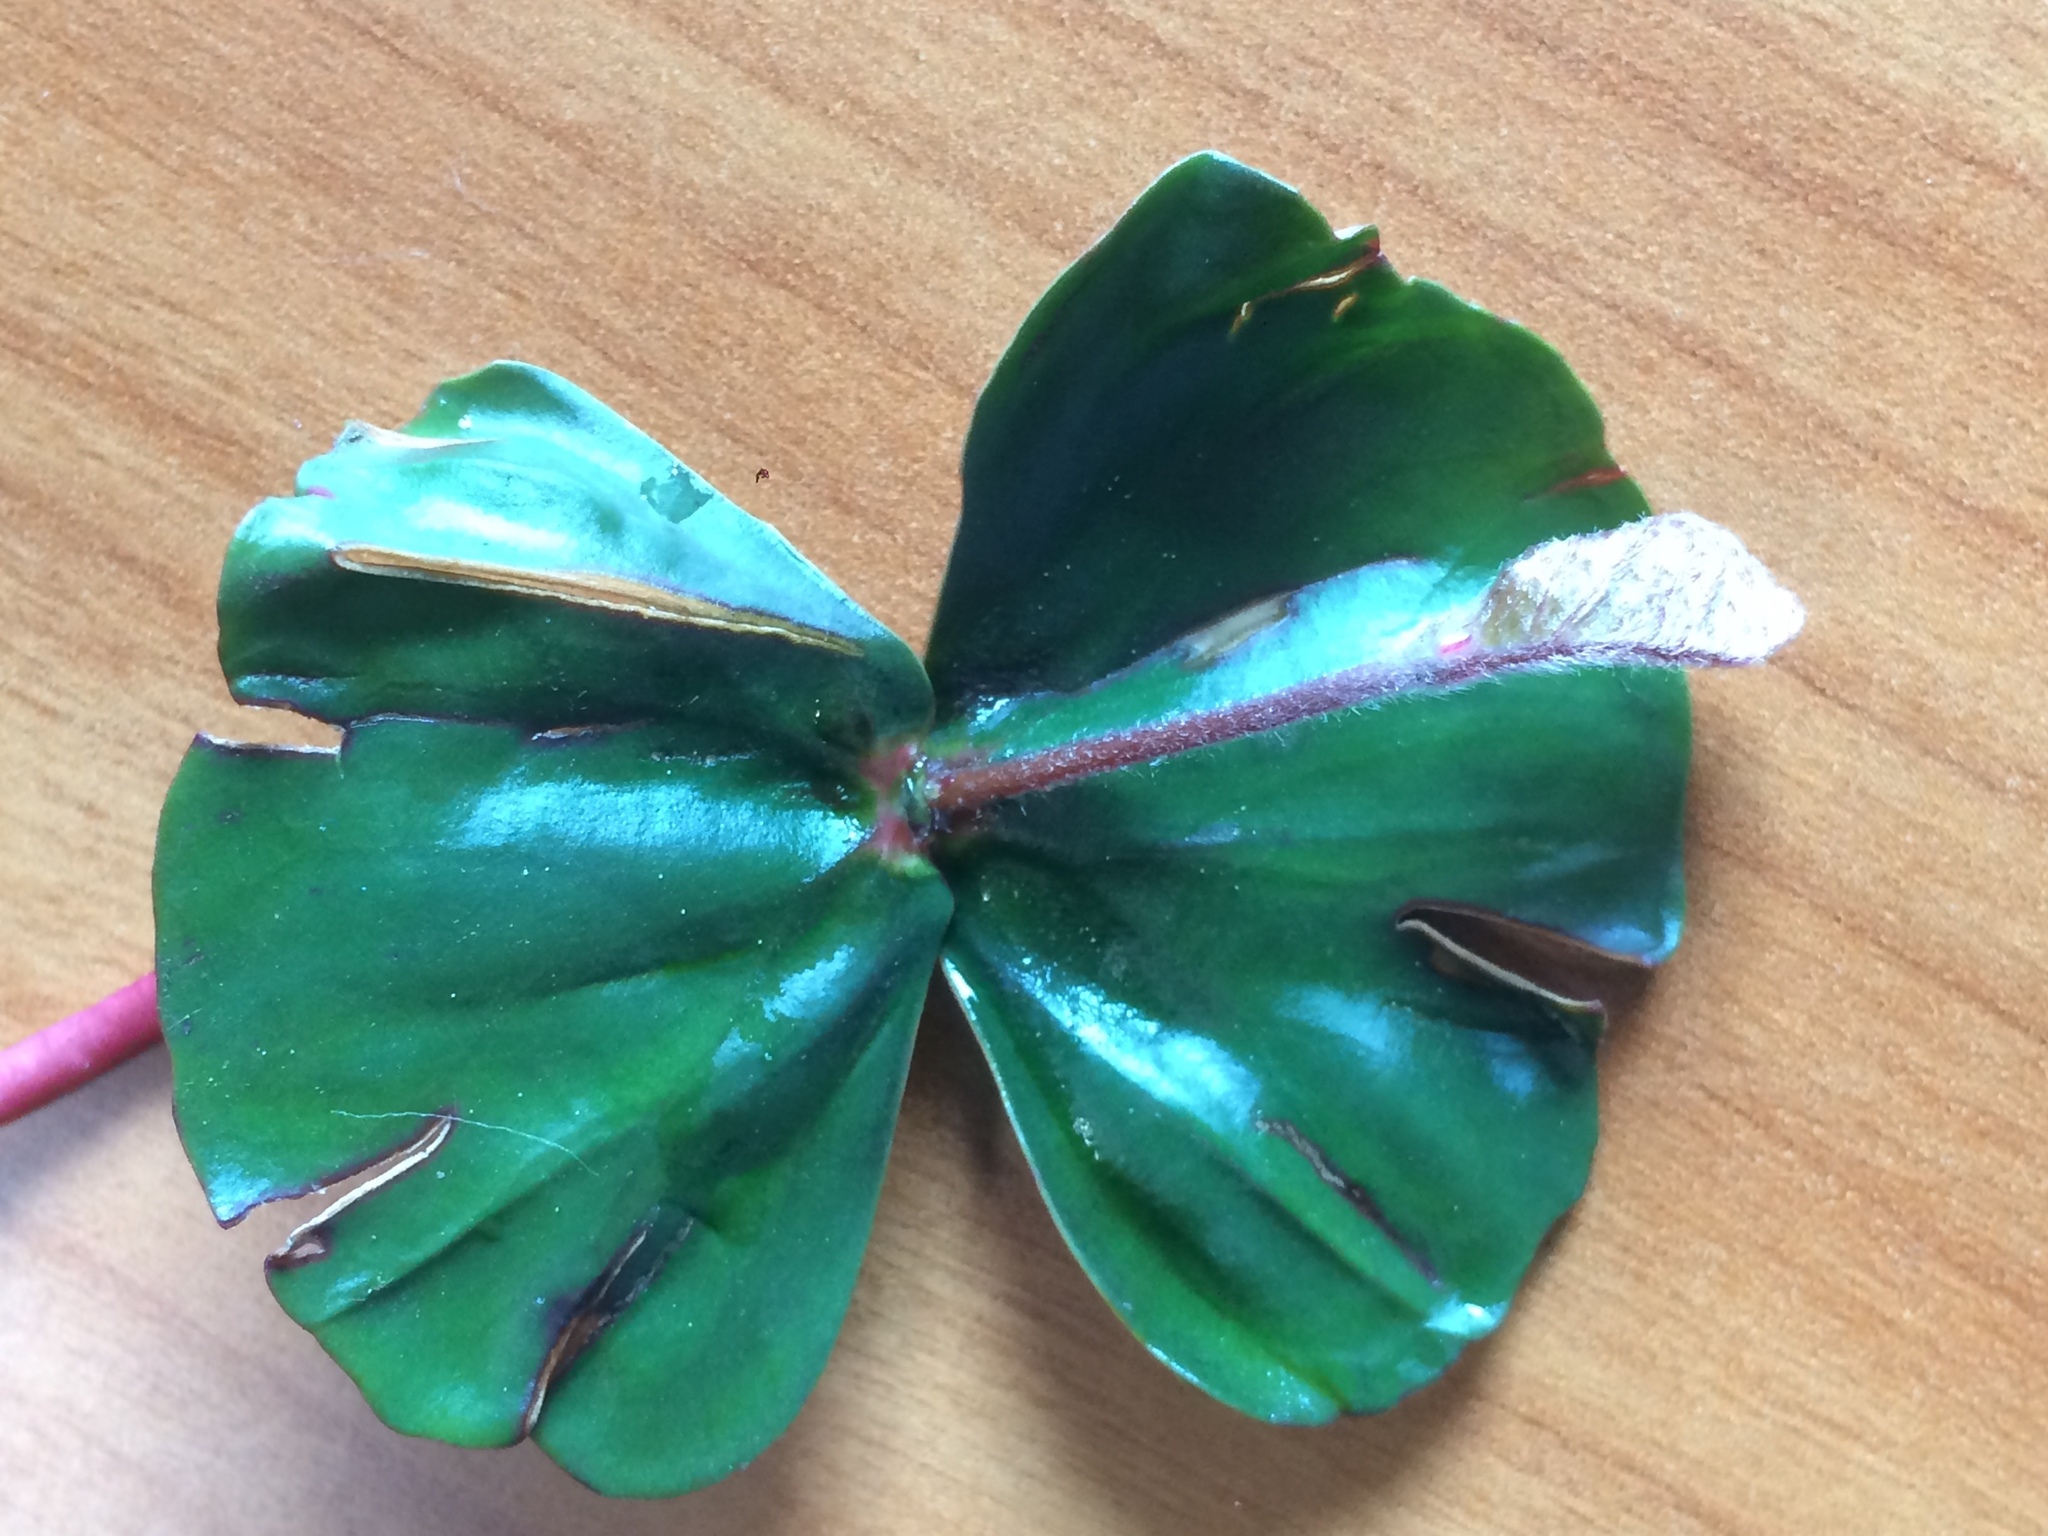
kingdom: Plantae
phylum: Tracheophyta
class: Magnoliopsida
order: Fagales
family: Fagaceae
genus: Fagus
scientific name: Fagus sylvatica
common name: Beech
